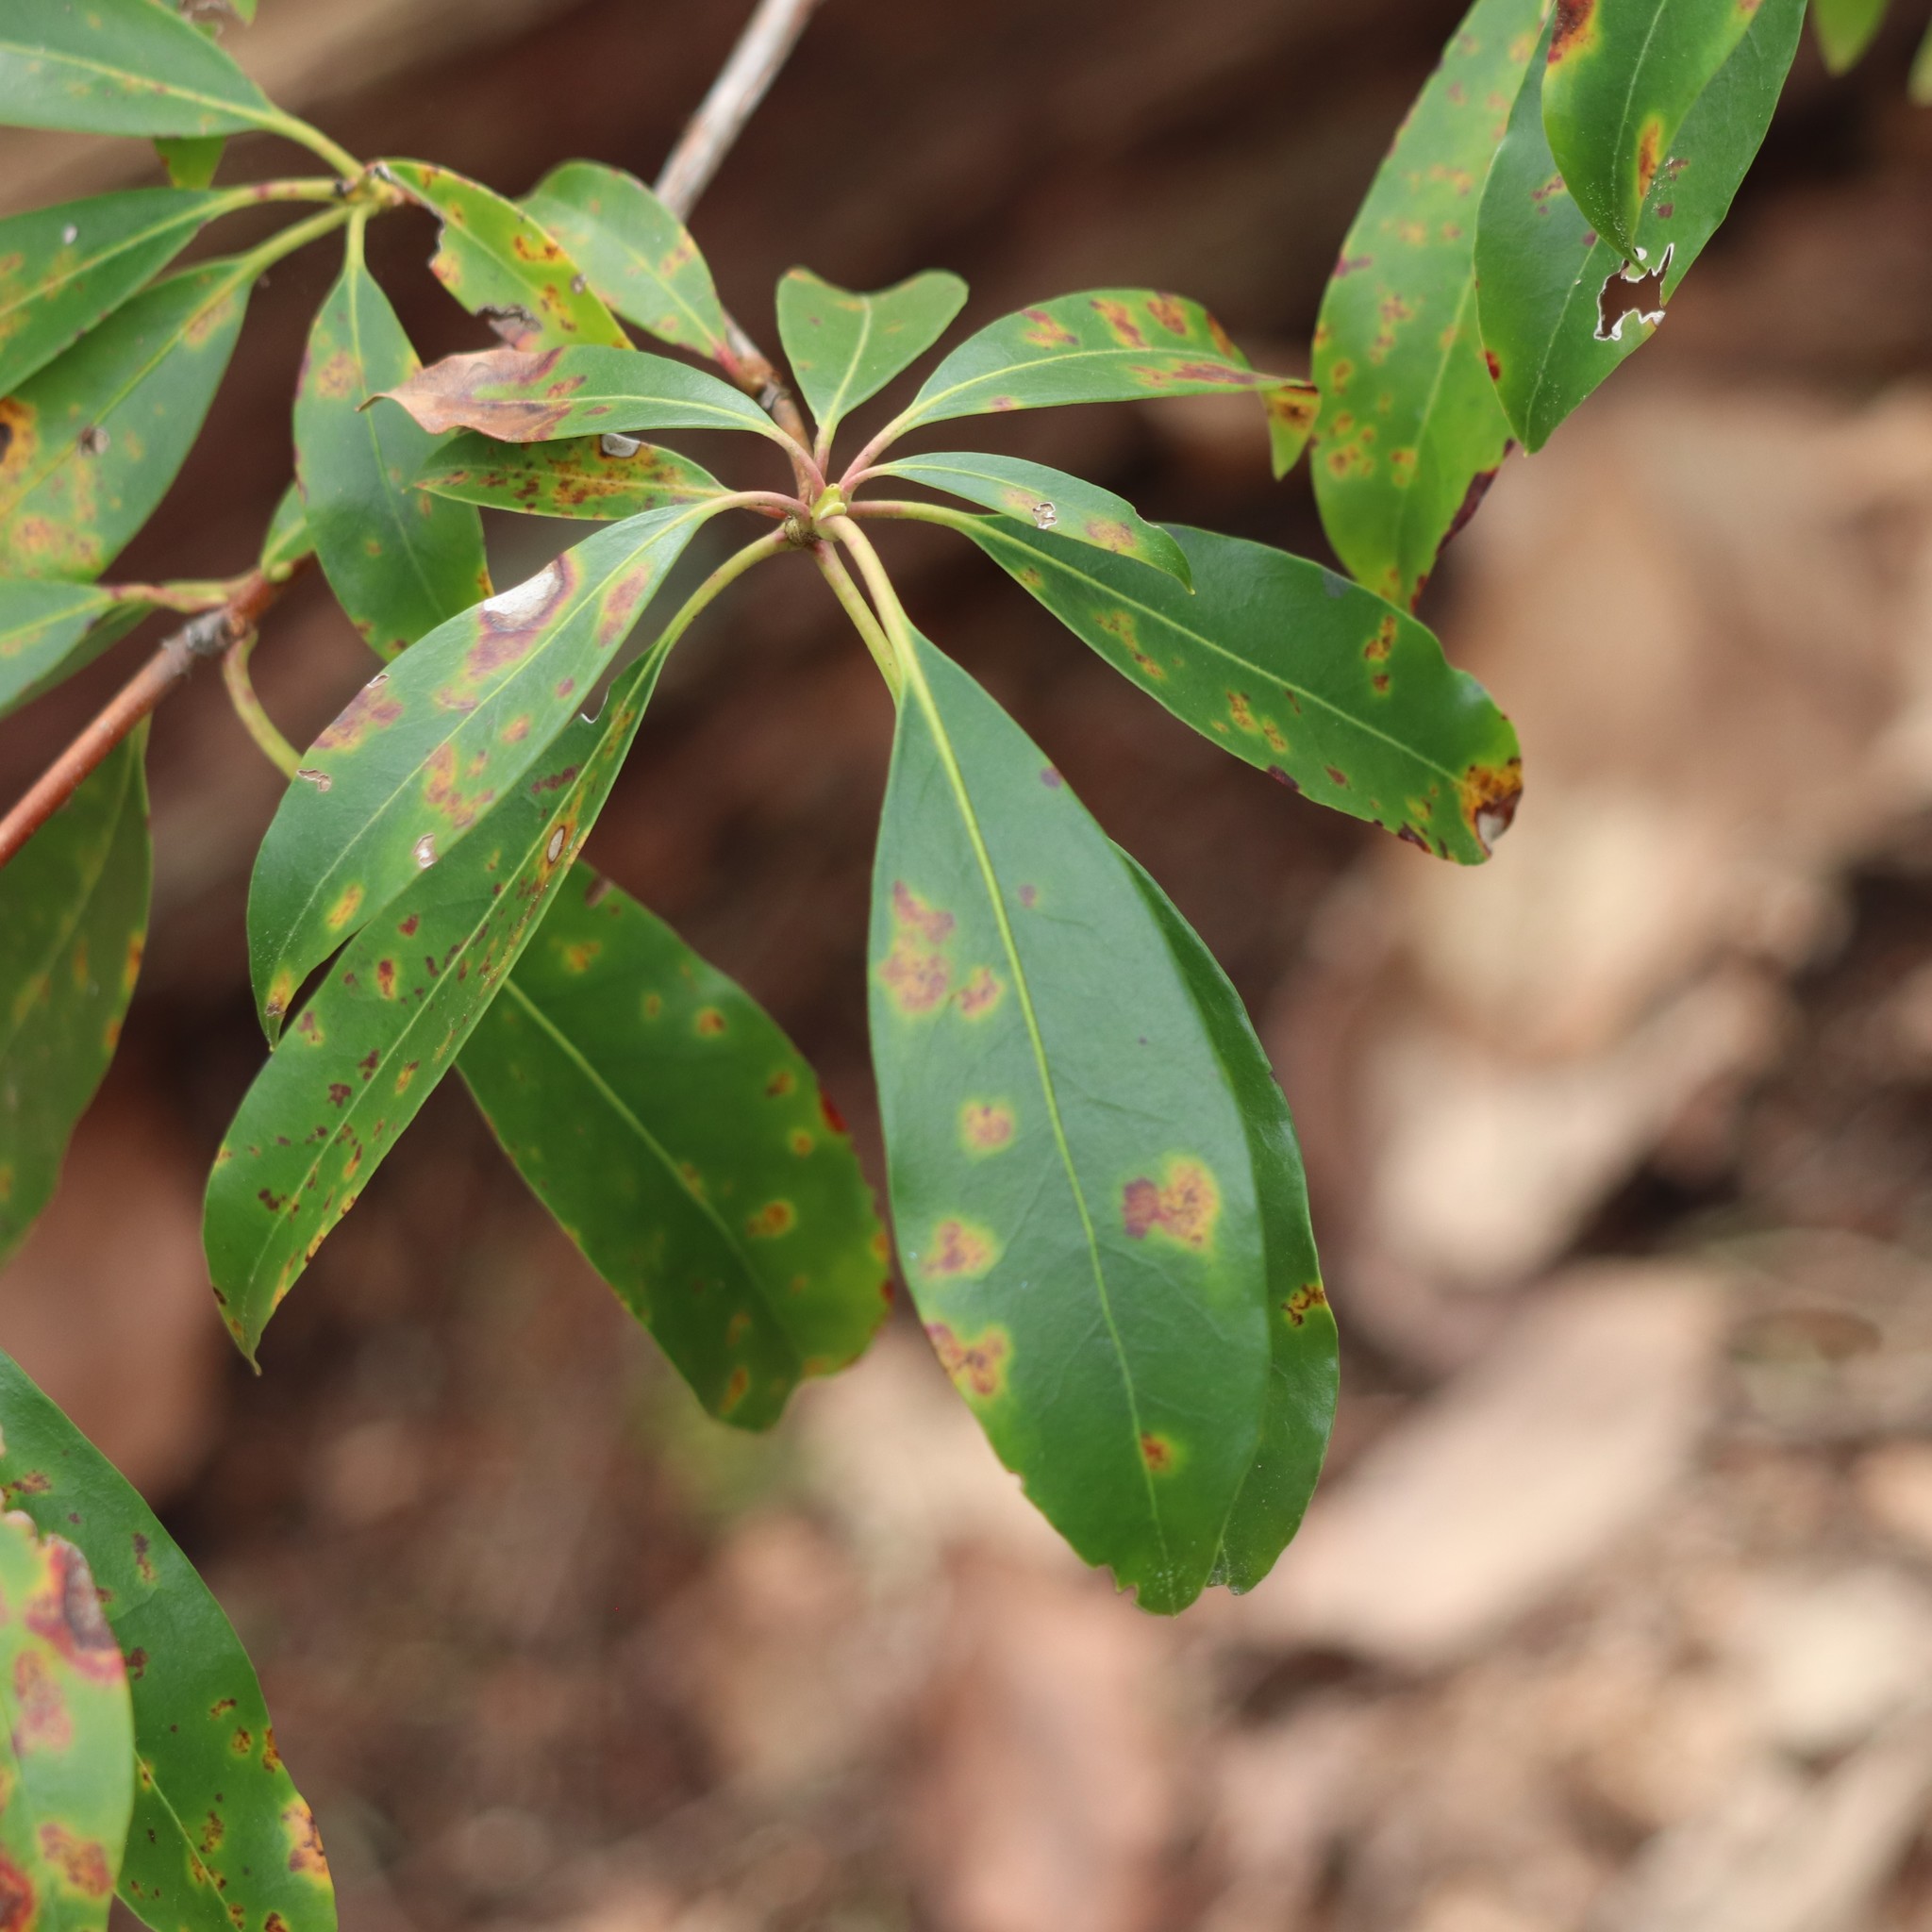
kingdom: Plantae
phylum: Tracheophyta
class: Magnoliopsida
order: Ericales
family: Ericaceae
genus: Kalmia
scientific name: Kalmia latifolia
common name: Mountain-laurel
